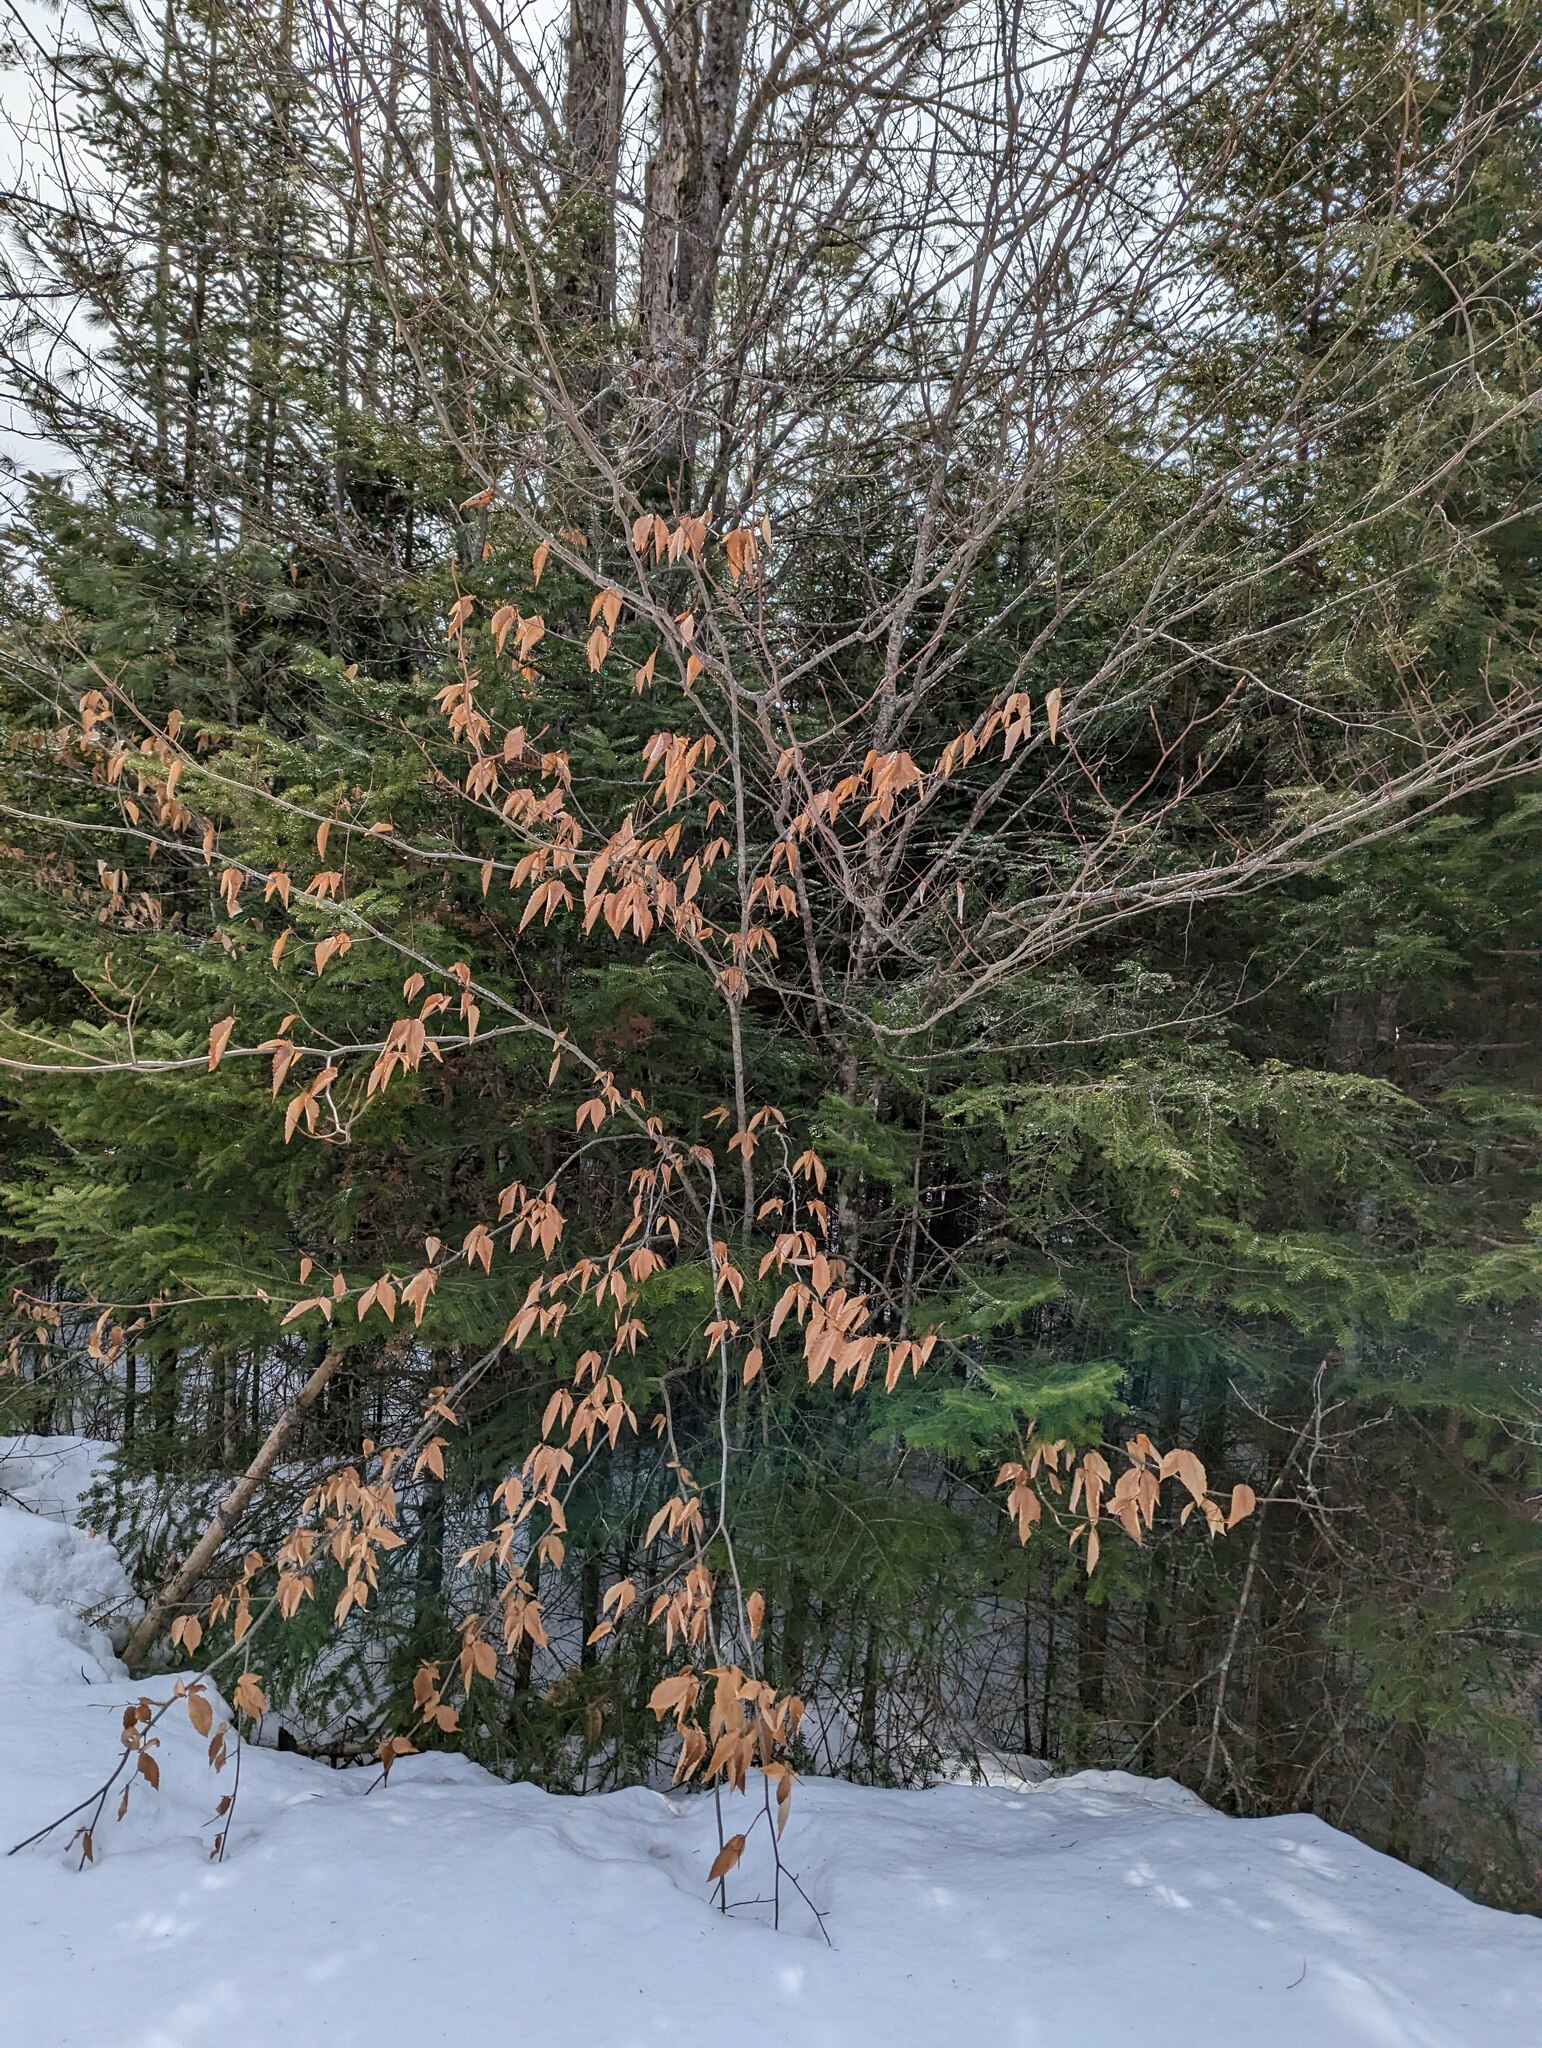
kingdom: Plantae
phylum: Tracheophyta
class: Magnoliopsida
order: Fagales
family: Fagaceae
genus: Fagus
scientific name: Fagus grandifolia
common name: American beech
